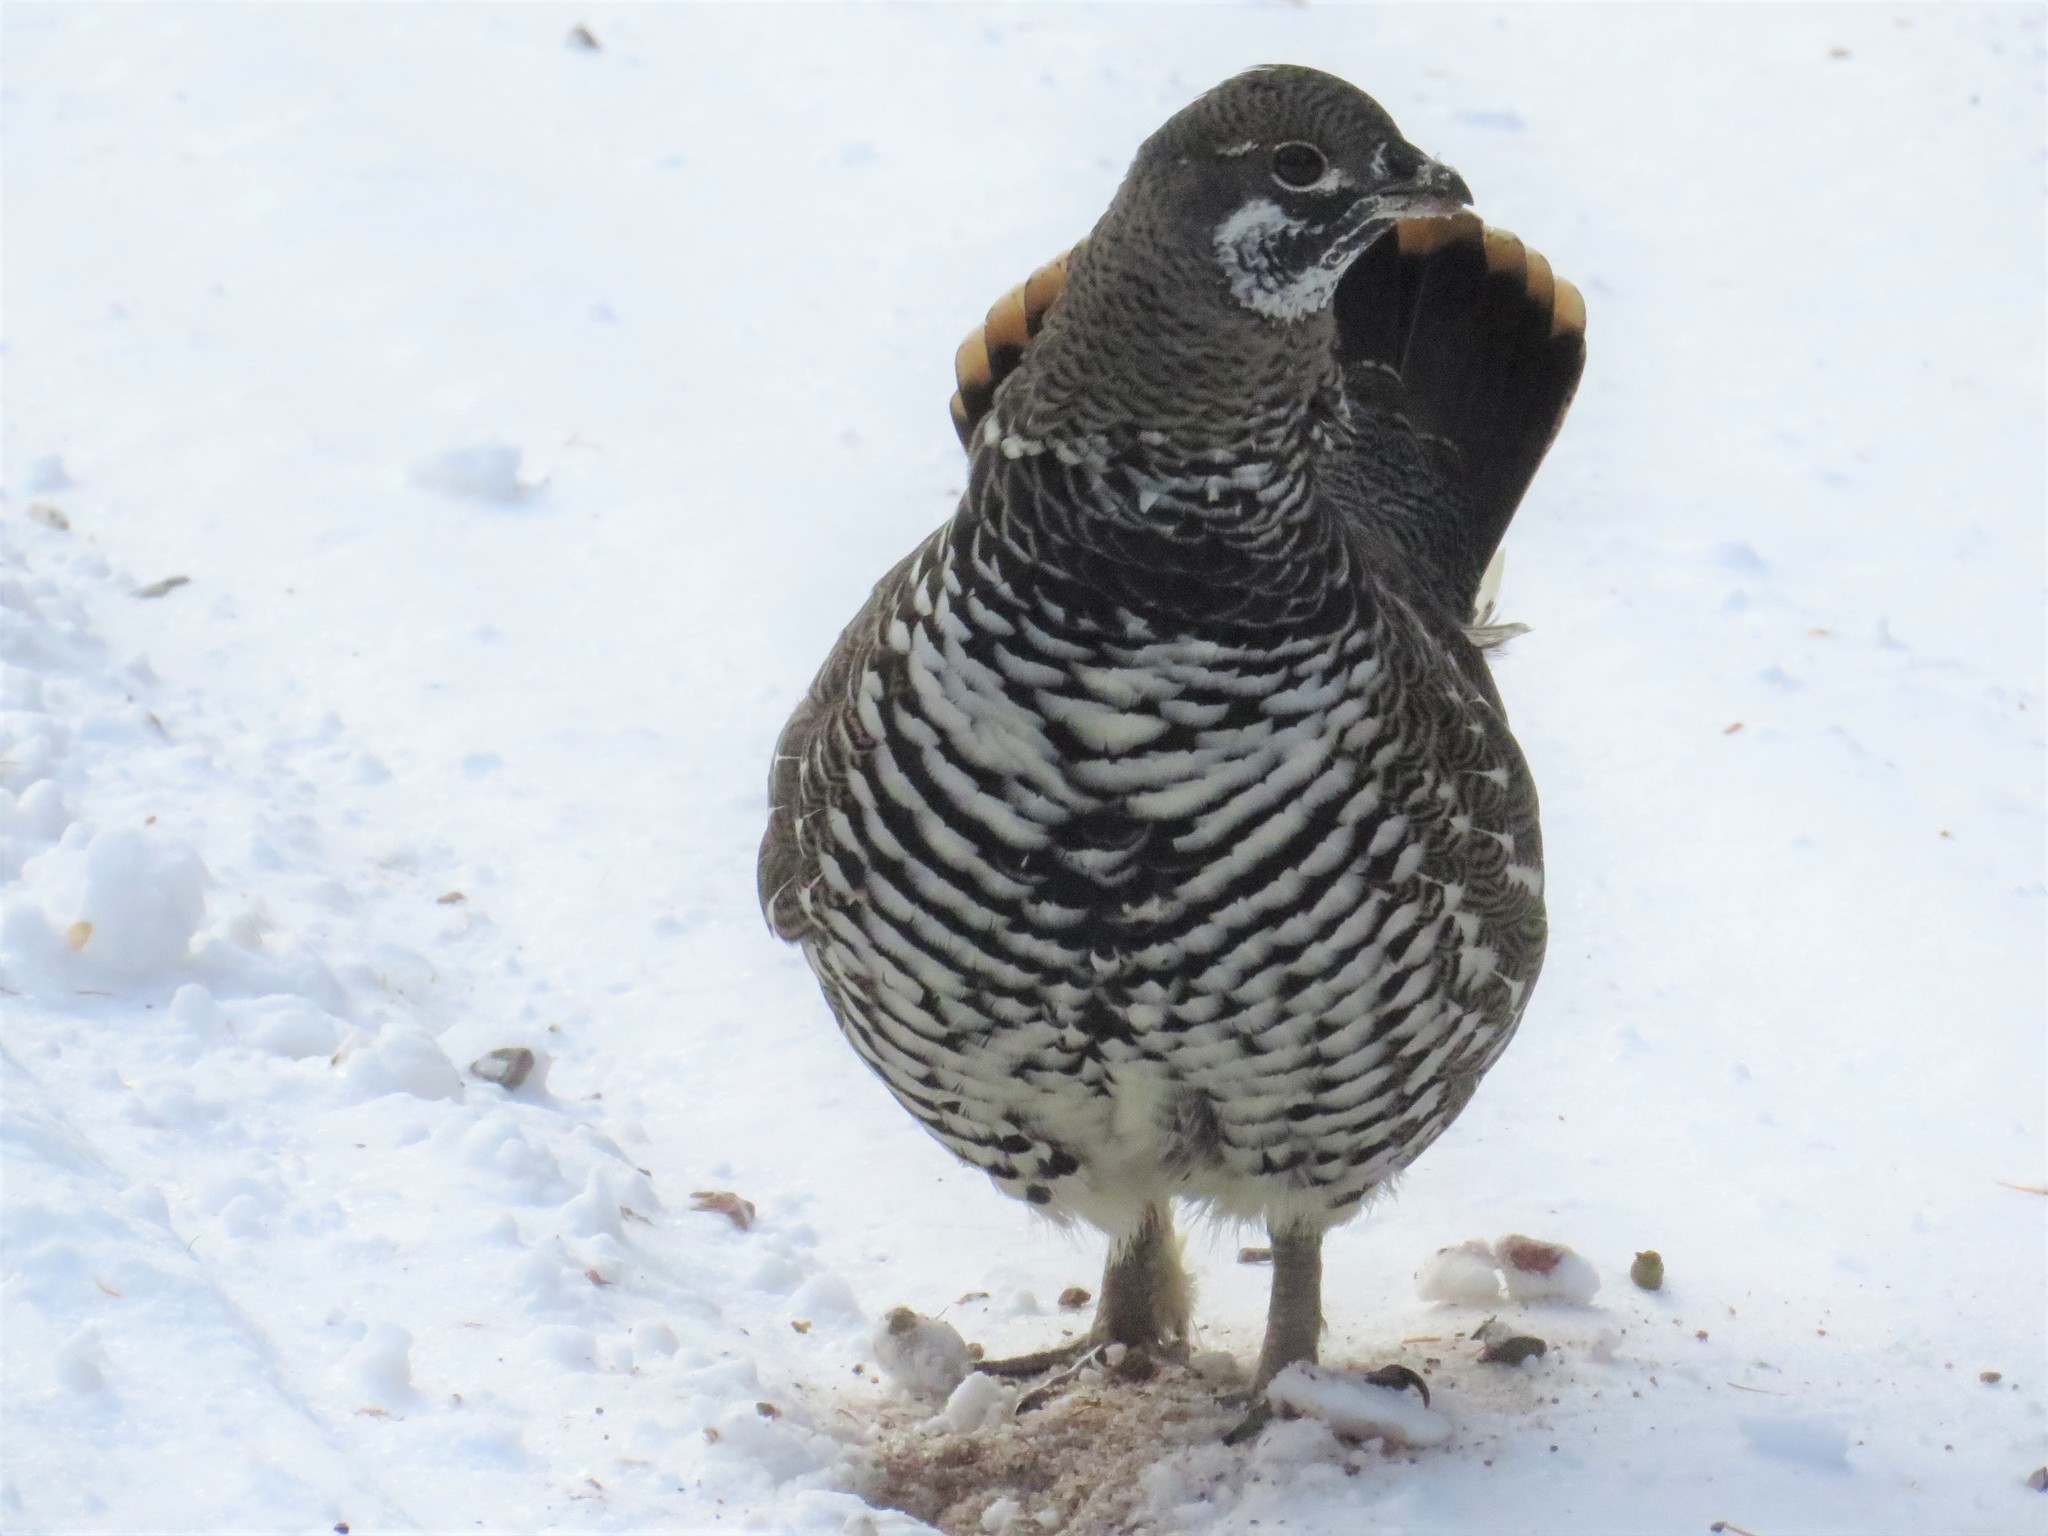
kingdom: Animalia
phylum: Chordata
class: Aves
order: Galliformes
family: Phasianidae
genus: Canachites
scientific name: Canachites canadensis
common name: Spruce grouse
